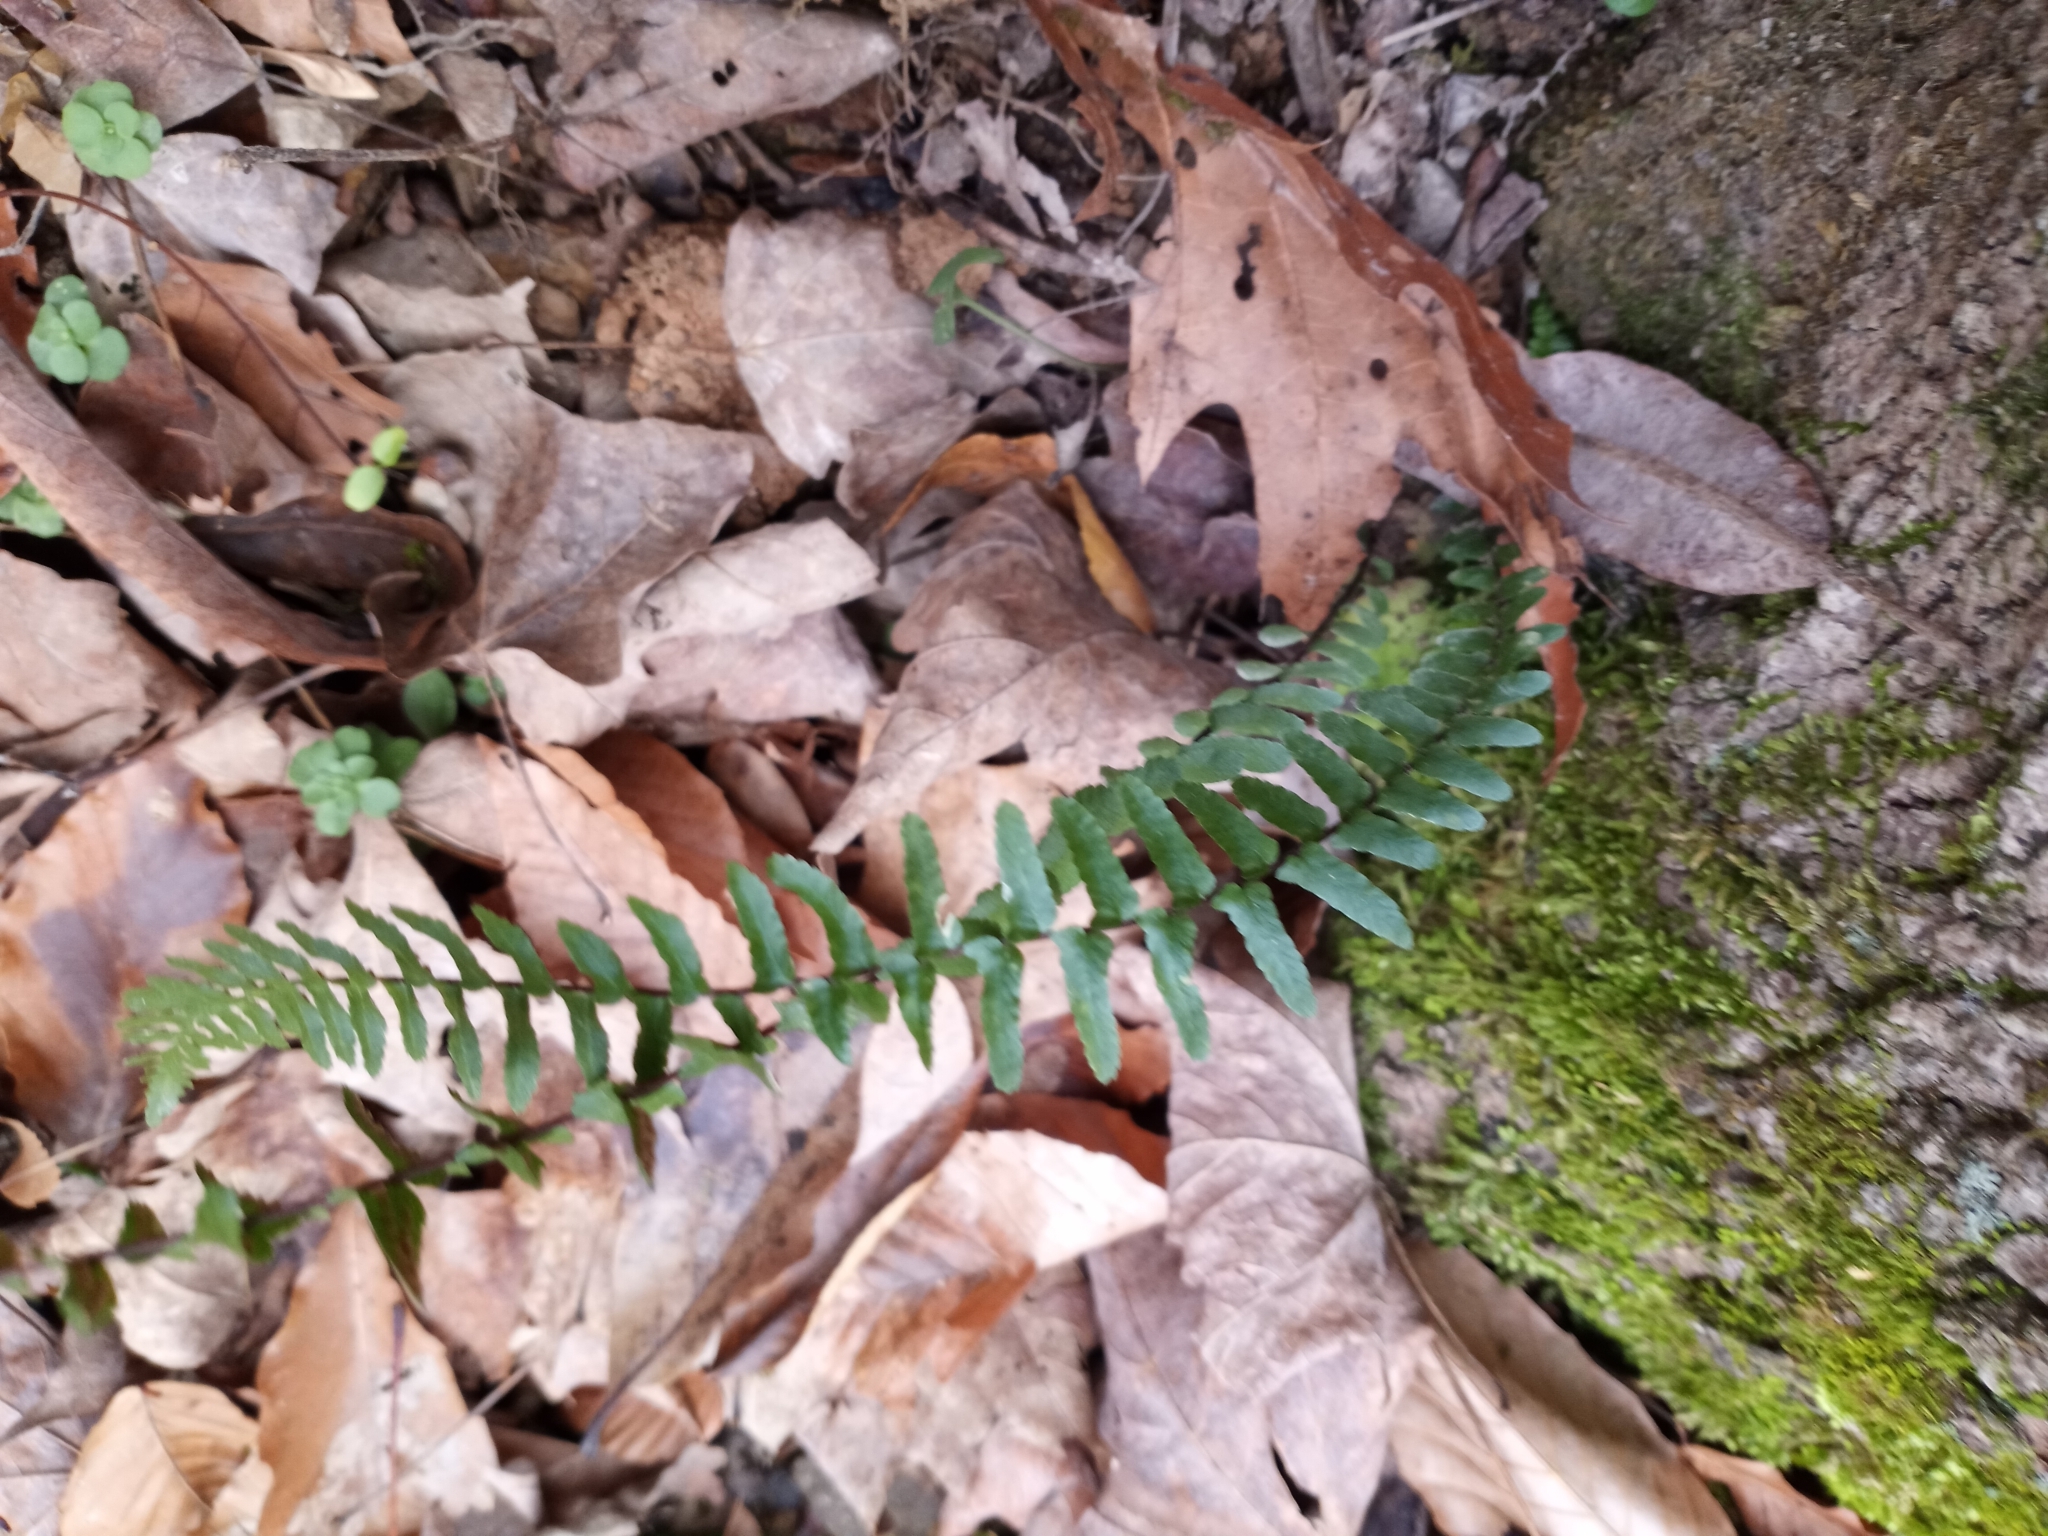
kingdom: Plantae
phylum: Tracheophyta
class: Polypodiopsida
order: Polypodiales
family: Aspleniaceae
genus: Asplenium
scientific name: Asplenium platyneuron
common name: Ebony spleenwort
